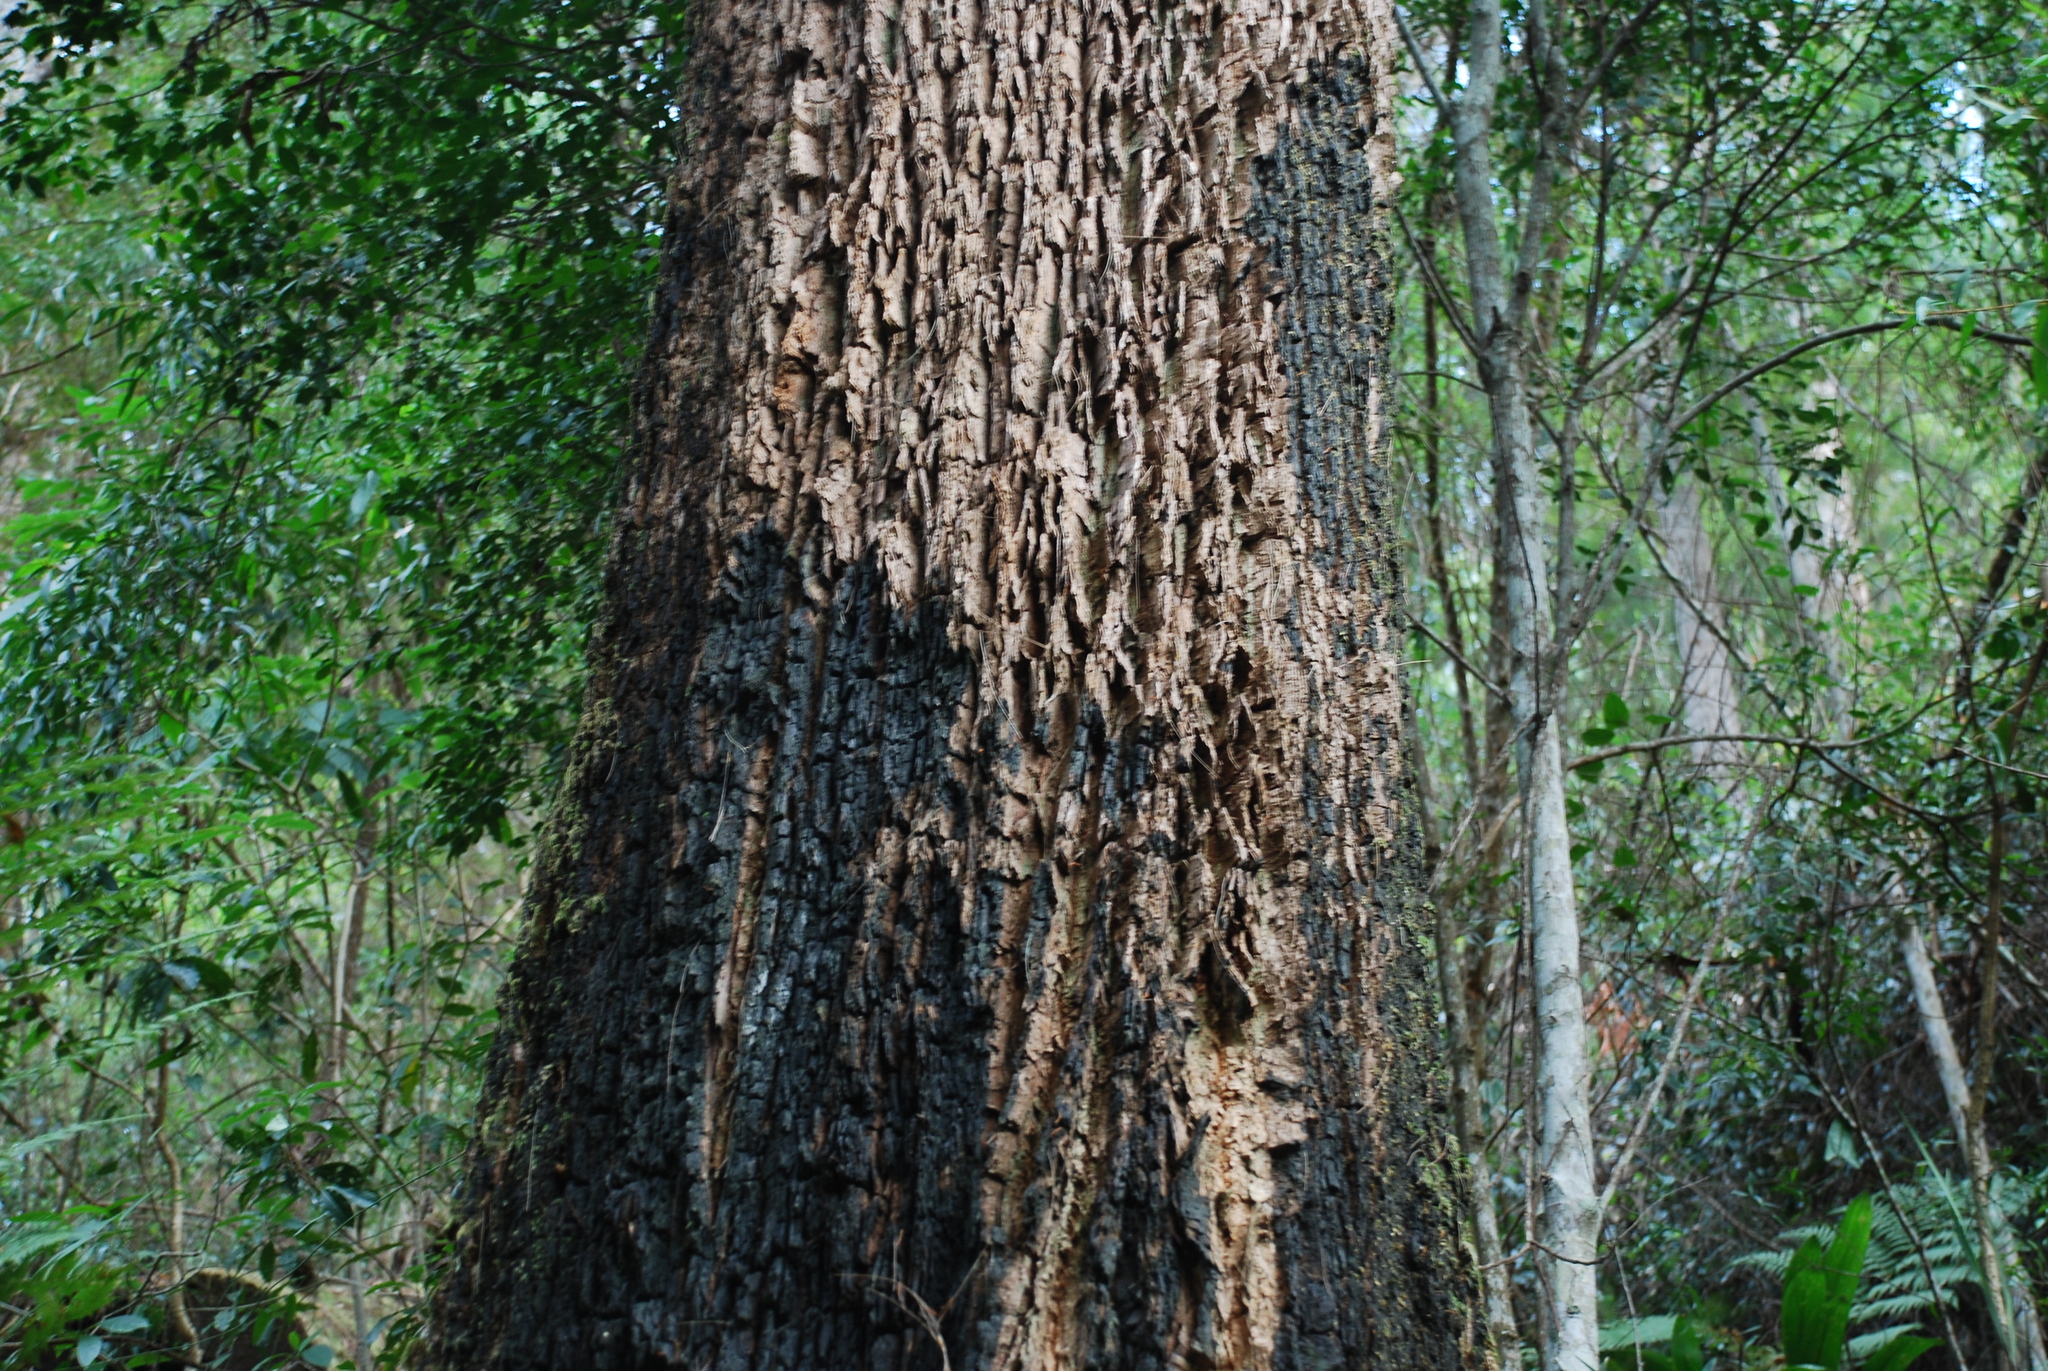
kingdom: Plantae
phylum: Tracheophyta
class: Magnoliopsida
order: Fagales
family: Casuarinaceae
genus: Allocasuarina
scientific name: Allocasuarina torulosa
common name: Forest-oak
